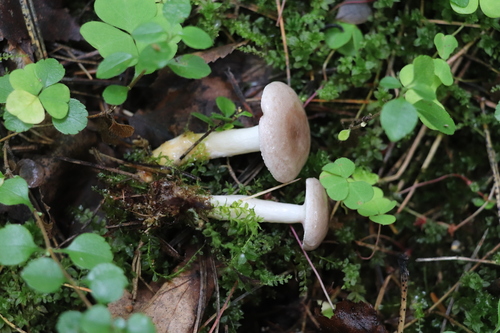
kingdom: Fungi
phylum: Basidiomycota
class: Agaricomycetes
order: Russulales
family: Russulaceae
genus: Lactarius
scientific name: Lactarius uvidus
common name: Shiner milkcap
